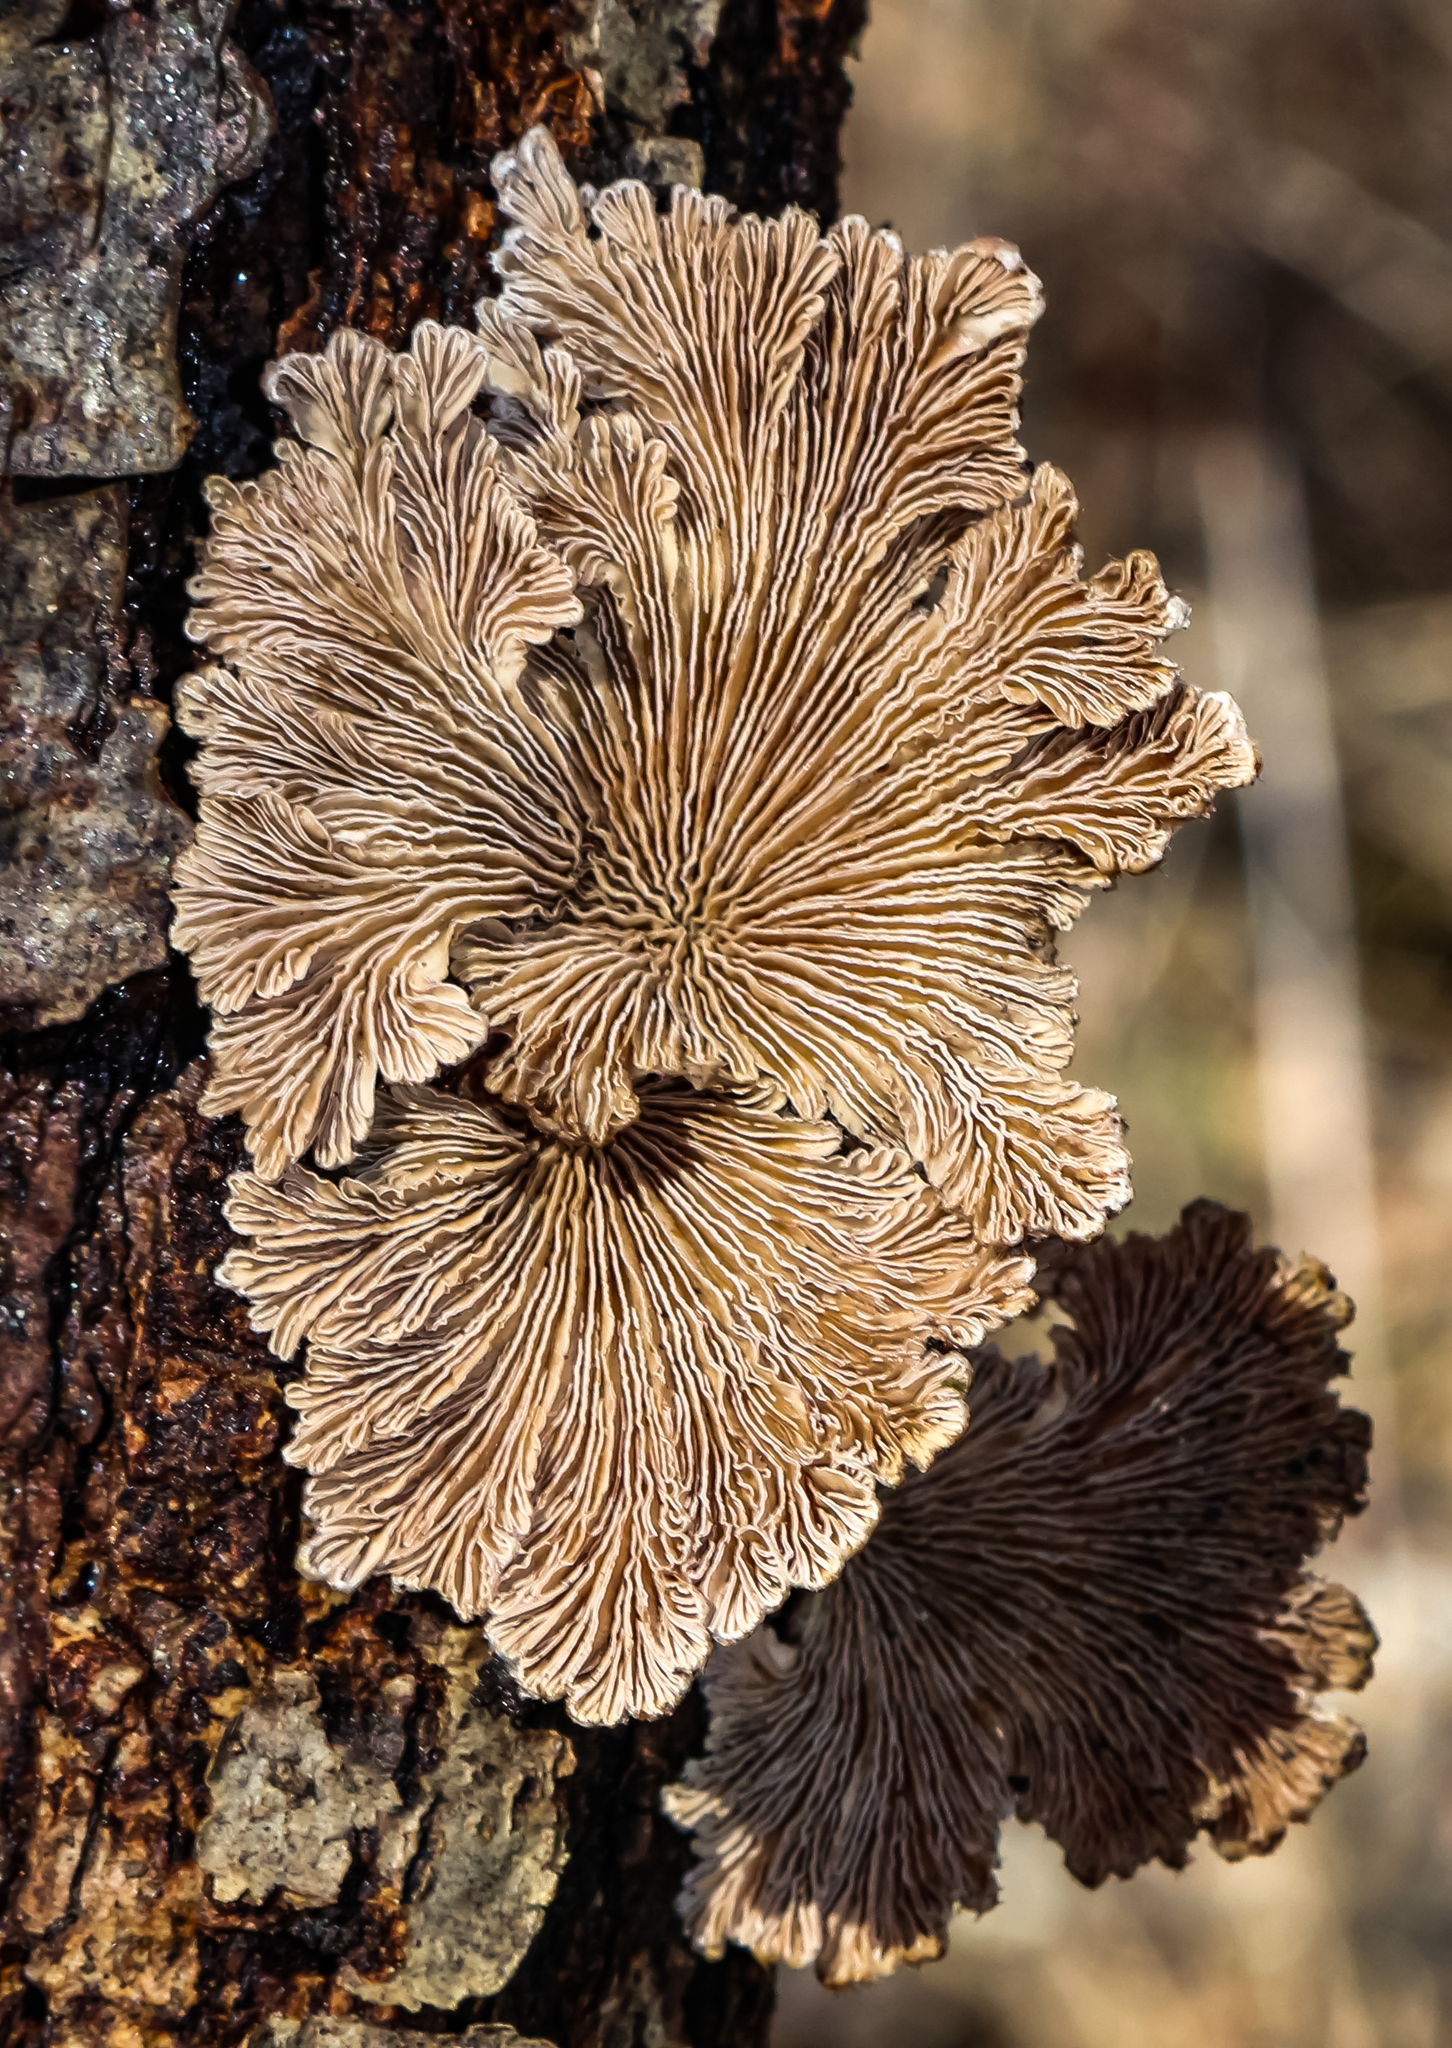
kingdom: Fungi
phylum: Basidiomycota
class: Agaricomycetes
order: Agaricales
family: Schizophyllaceae
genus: Schizophyllum
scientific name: Schizophyllum commune
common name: Common porecrust
